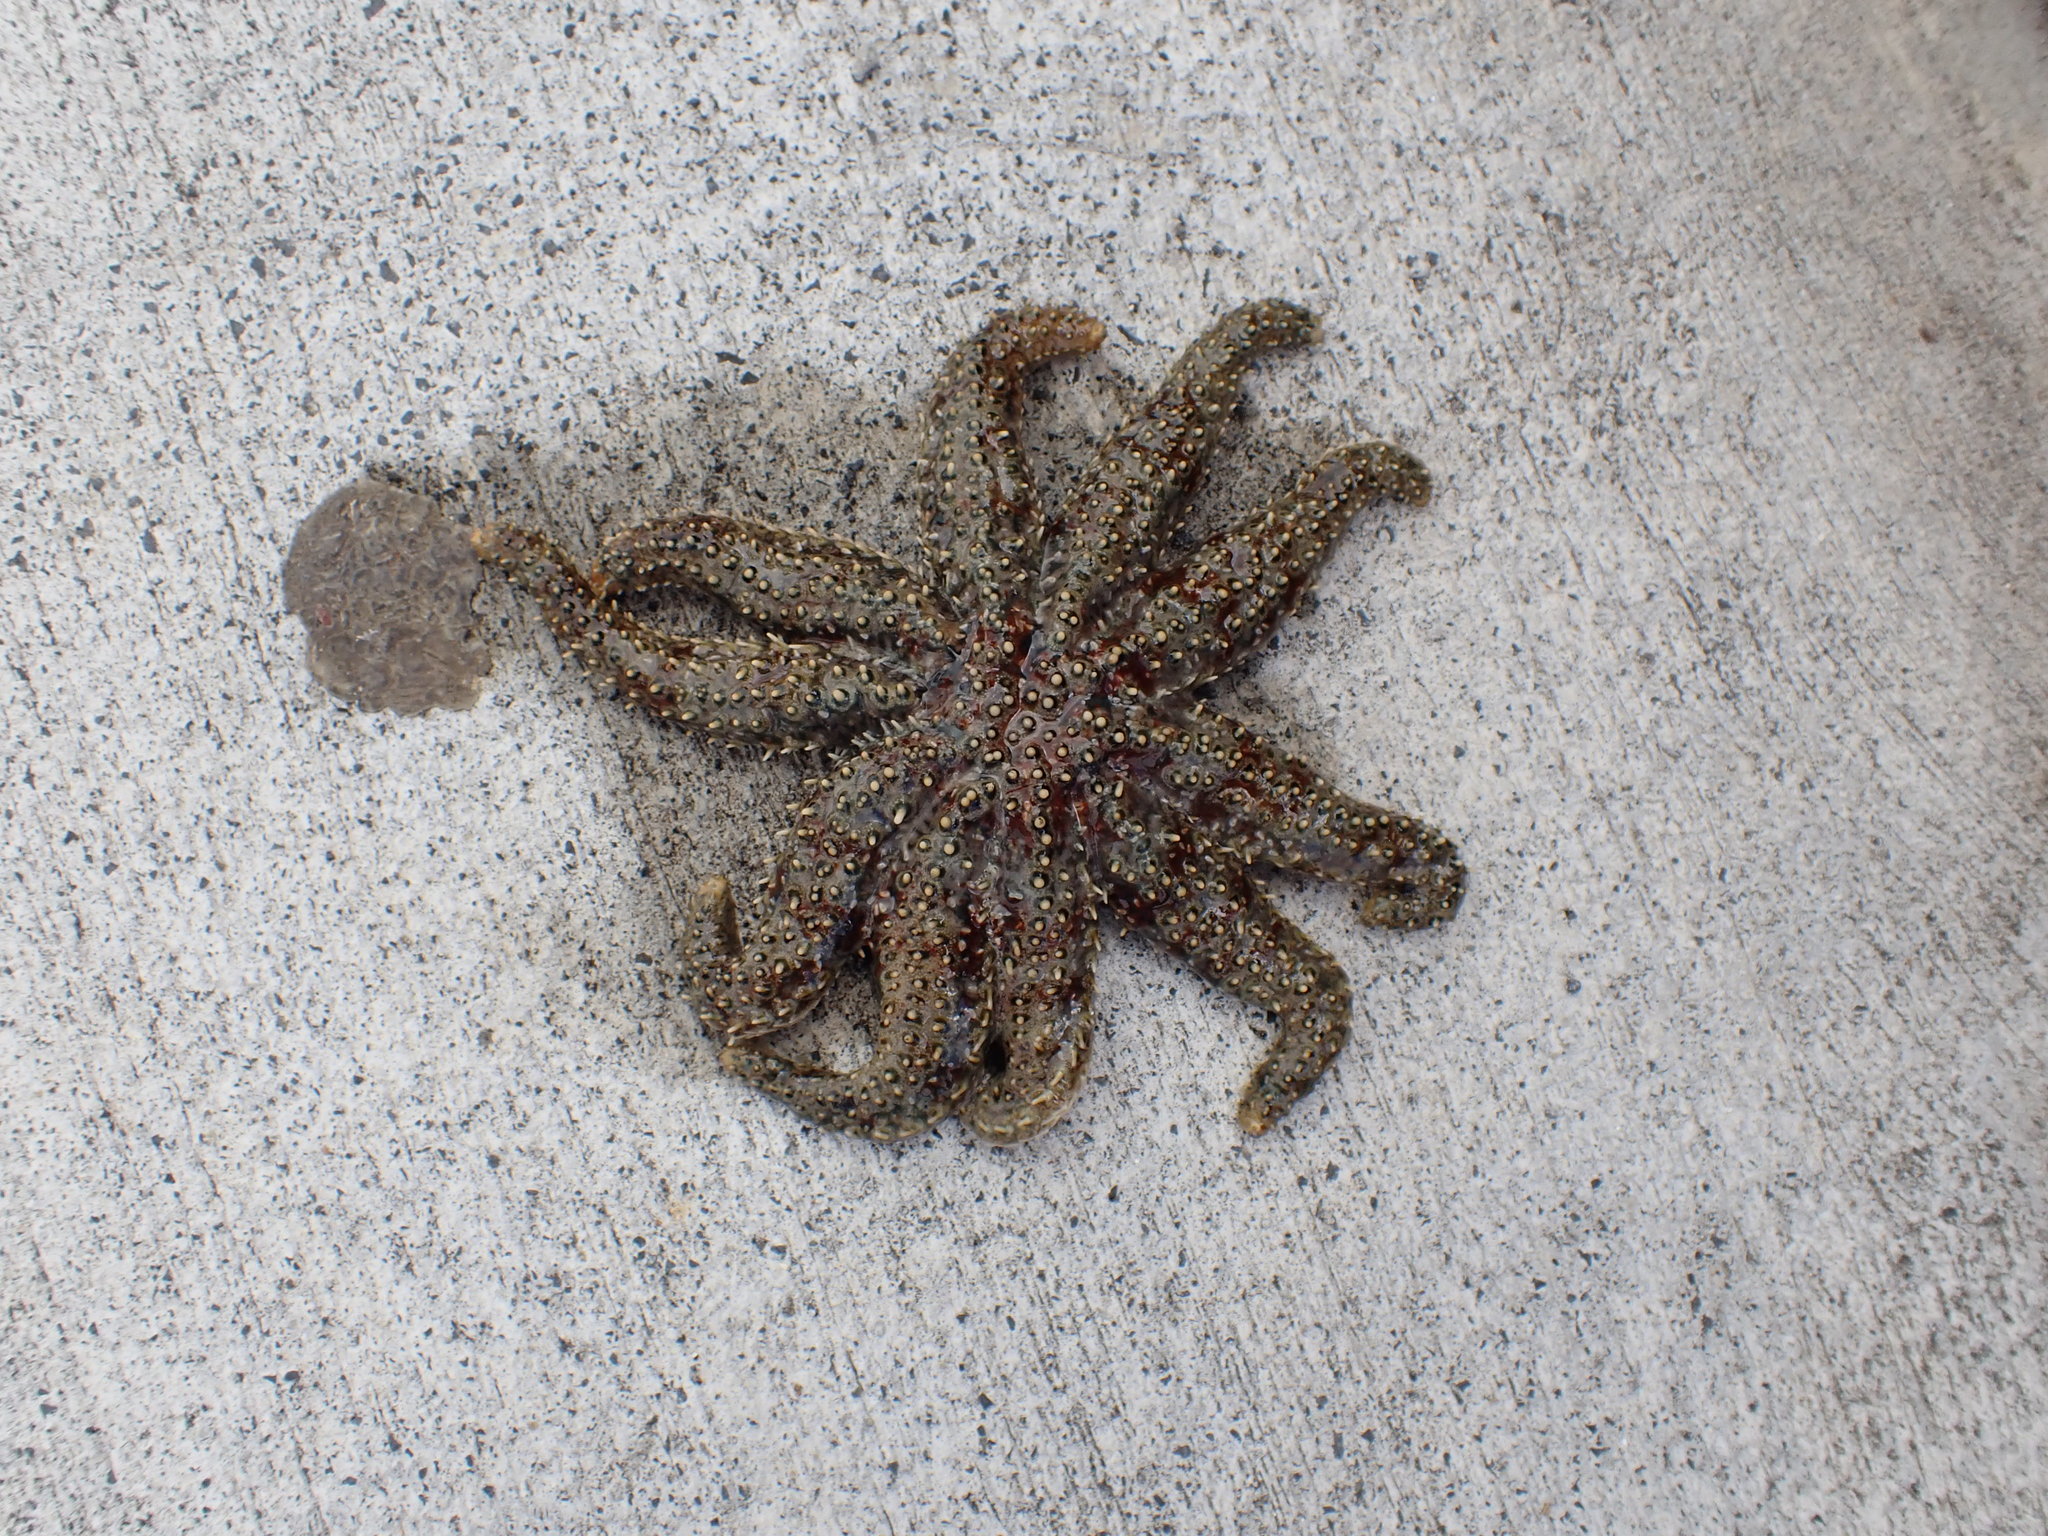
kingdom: Animalia
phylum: Echinodermata
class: Asteroidea
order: Forcipulatida
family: Asteriidae
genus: Coscinasterias
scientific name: Coscinasterias muricata
